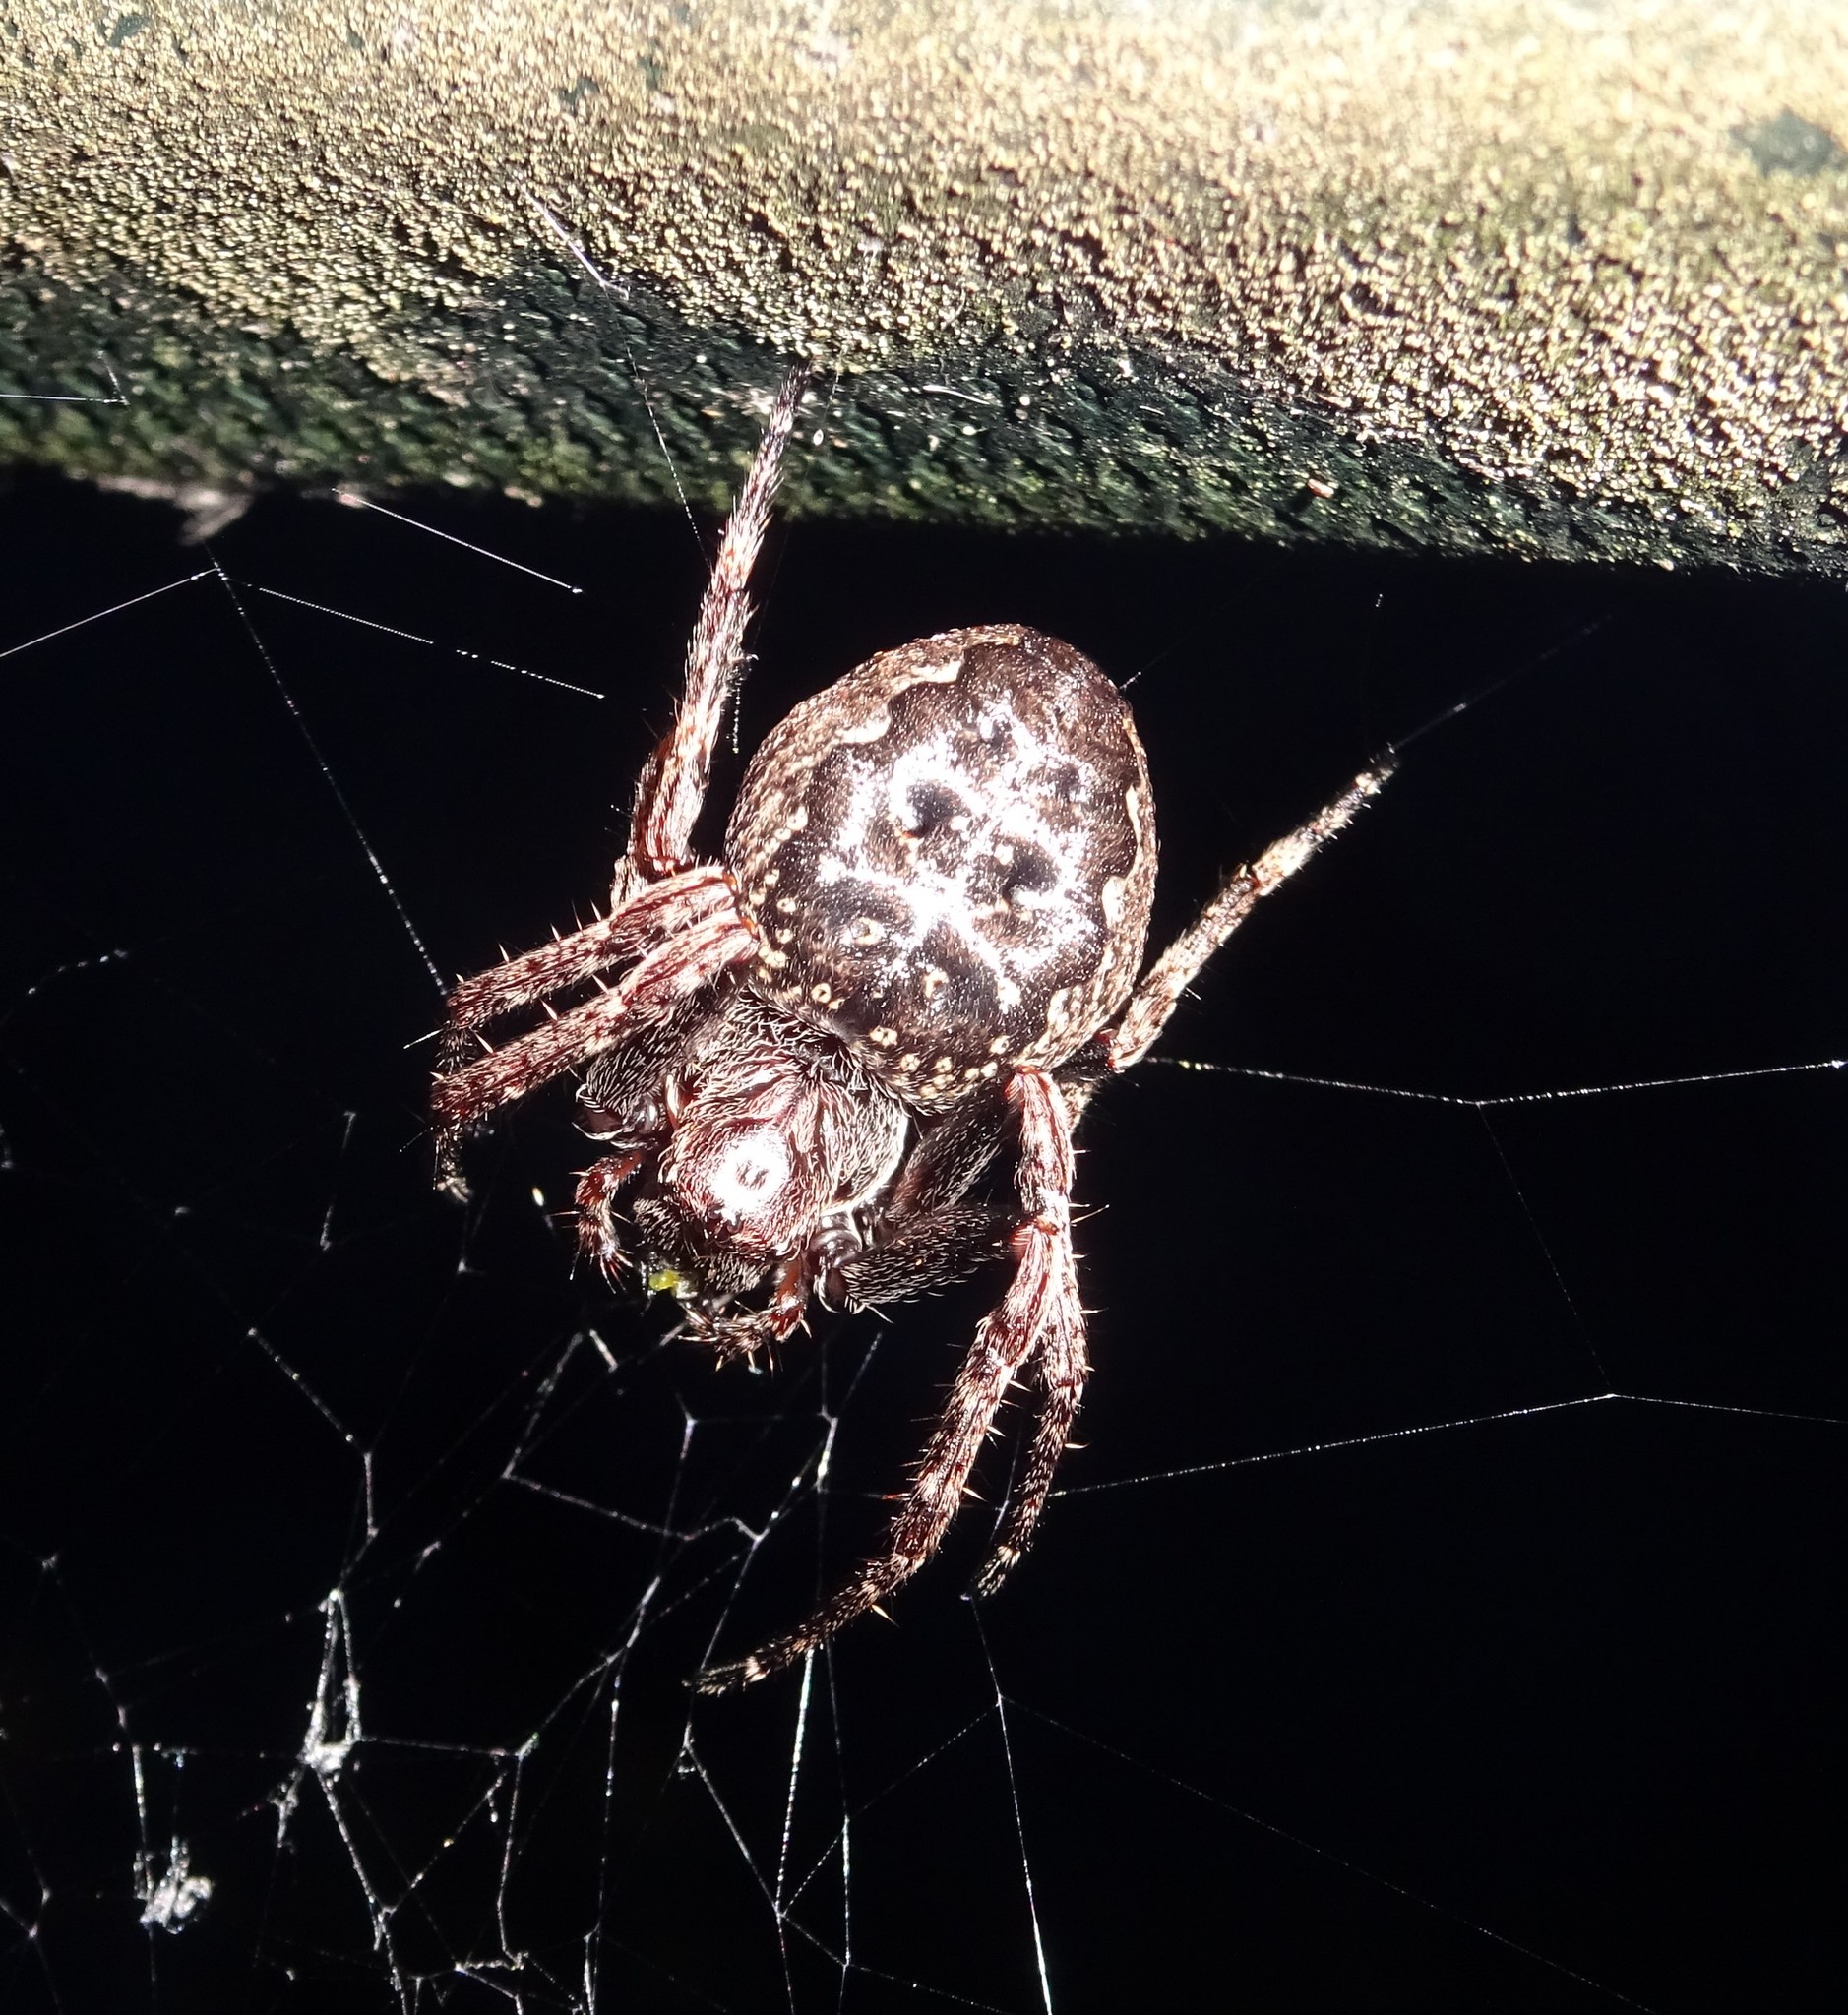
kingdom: Animalia
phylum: Arthropoda
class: Arachnida
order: Araneae
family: Araneidae
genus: Nuctenea
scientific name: Nuctenea umbratica
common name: Toad spider
